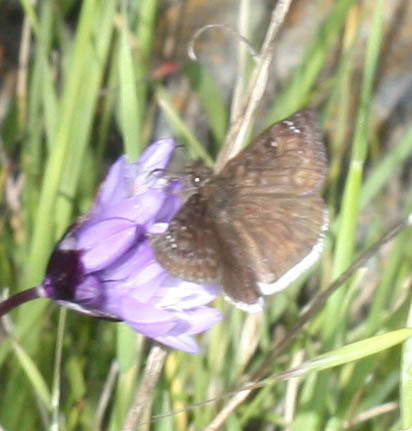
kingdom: Animalia
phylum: Arthropoda
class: Insecta
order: Lepidoptera
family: Hesperiidae
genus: Erynnis
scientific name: Erynnis tristis
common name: Mournful duskywing
